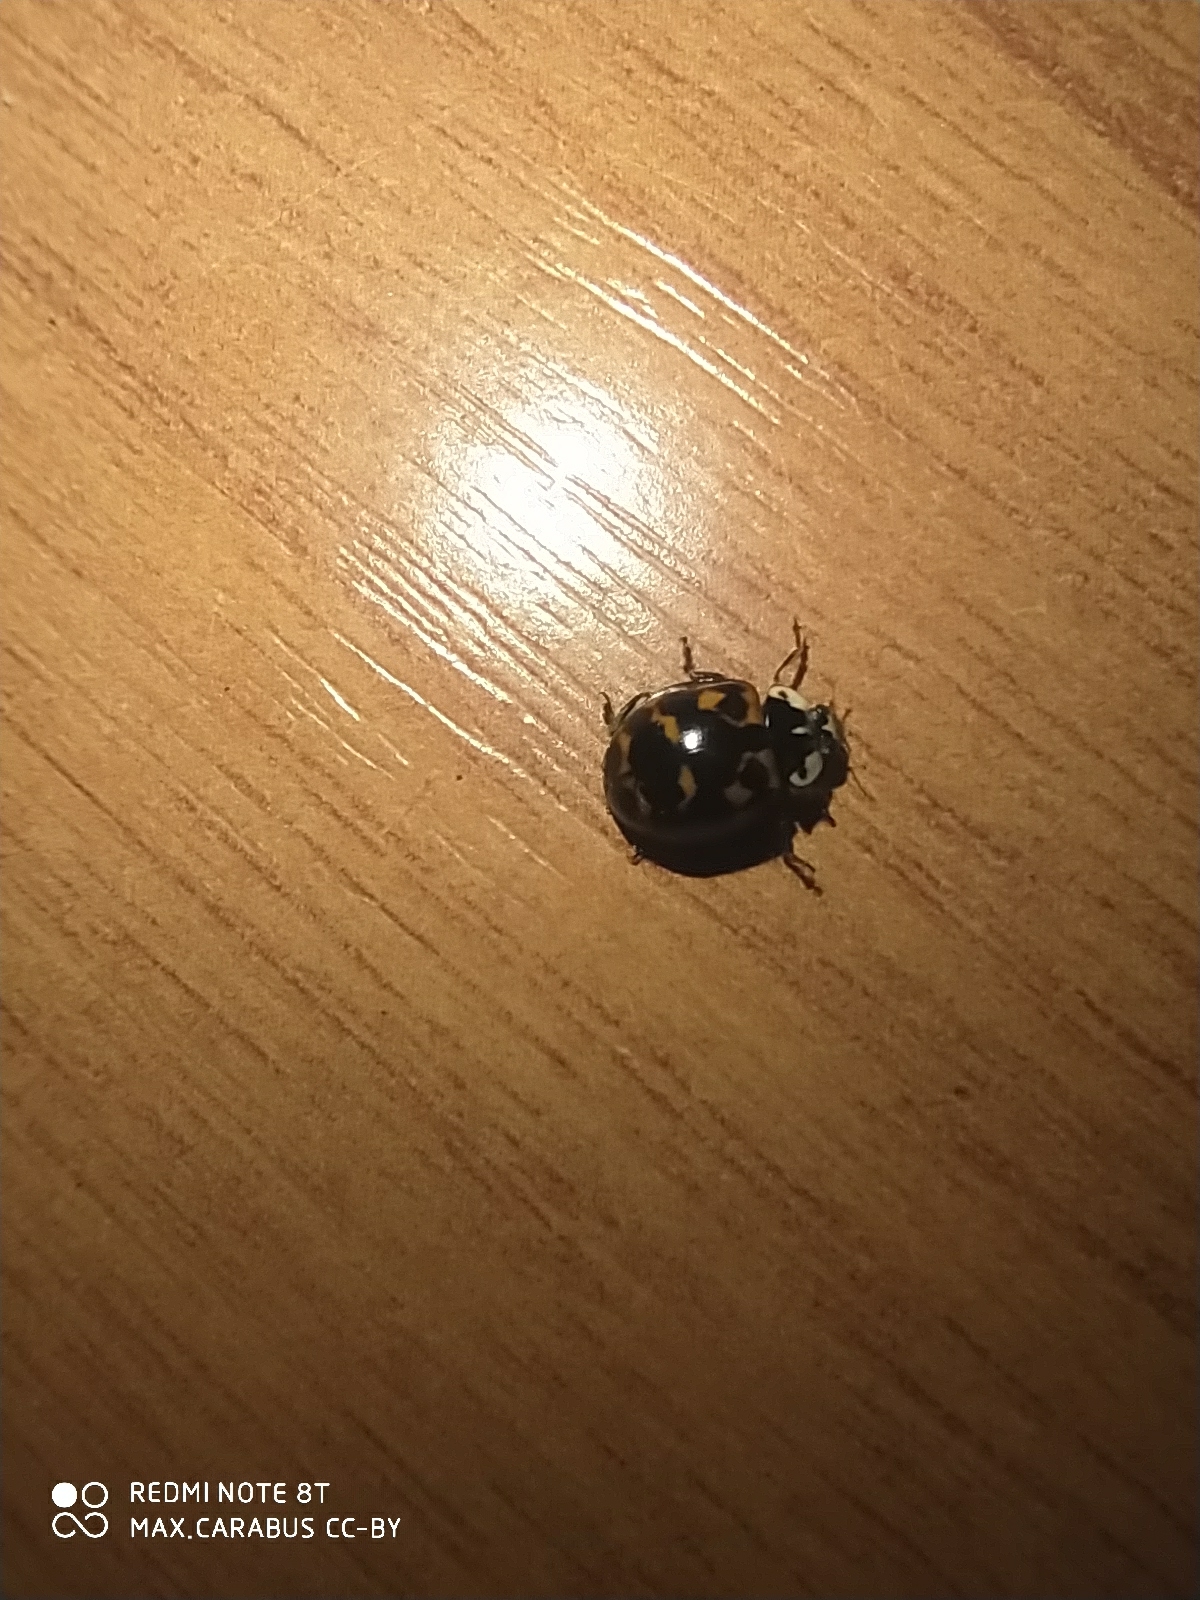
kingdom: Animalia
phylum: Arthropoda
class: Insecta
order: Coleoptera
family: Coccinellidae
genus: Harmonia
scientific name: Harmonia axyridis
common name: Harlequin ladybird
